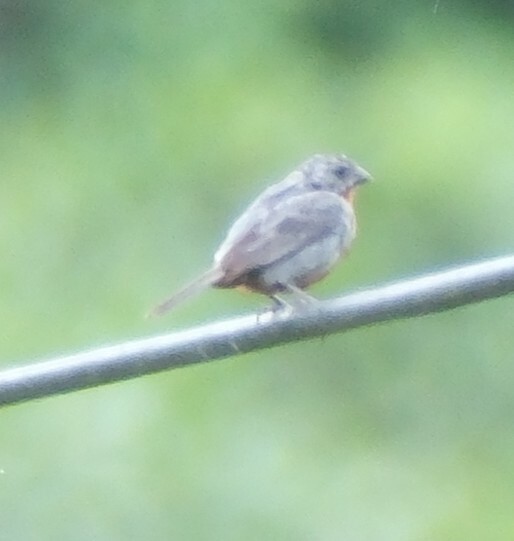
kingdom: Animalia
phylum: Chordata
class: Aves
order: Passeriformes
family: Thraupidae
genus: Sporophila
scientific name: Sporophila castaneiventris
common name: Chestnut-bellied seedeater
